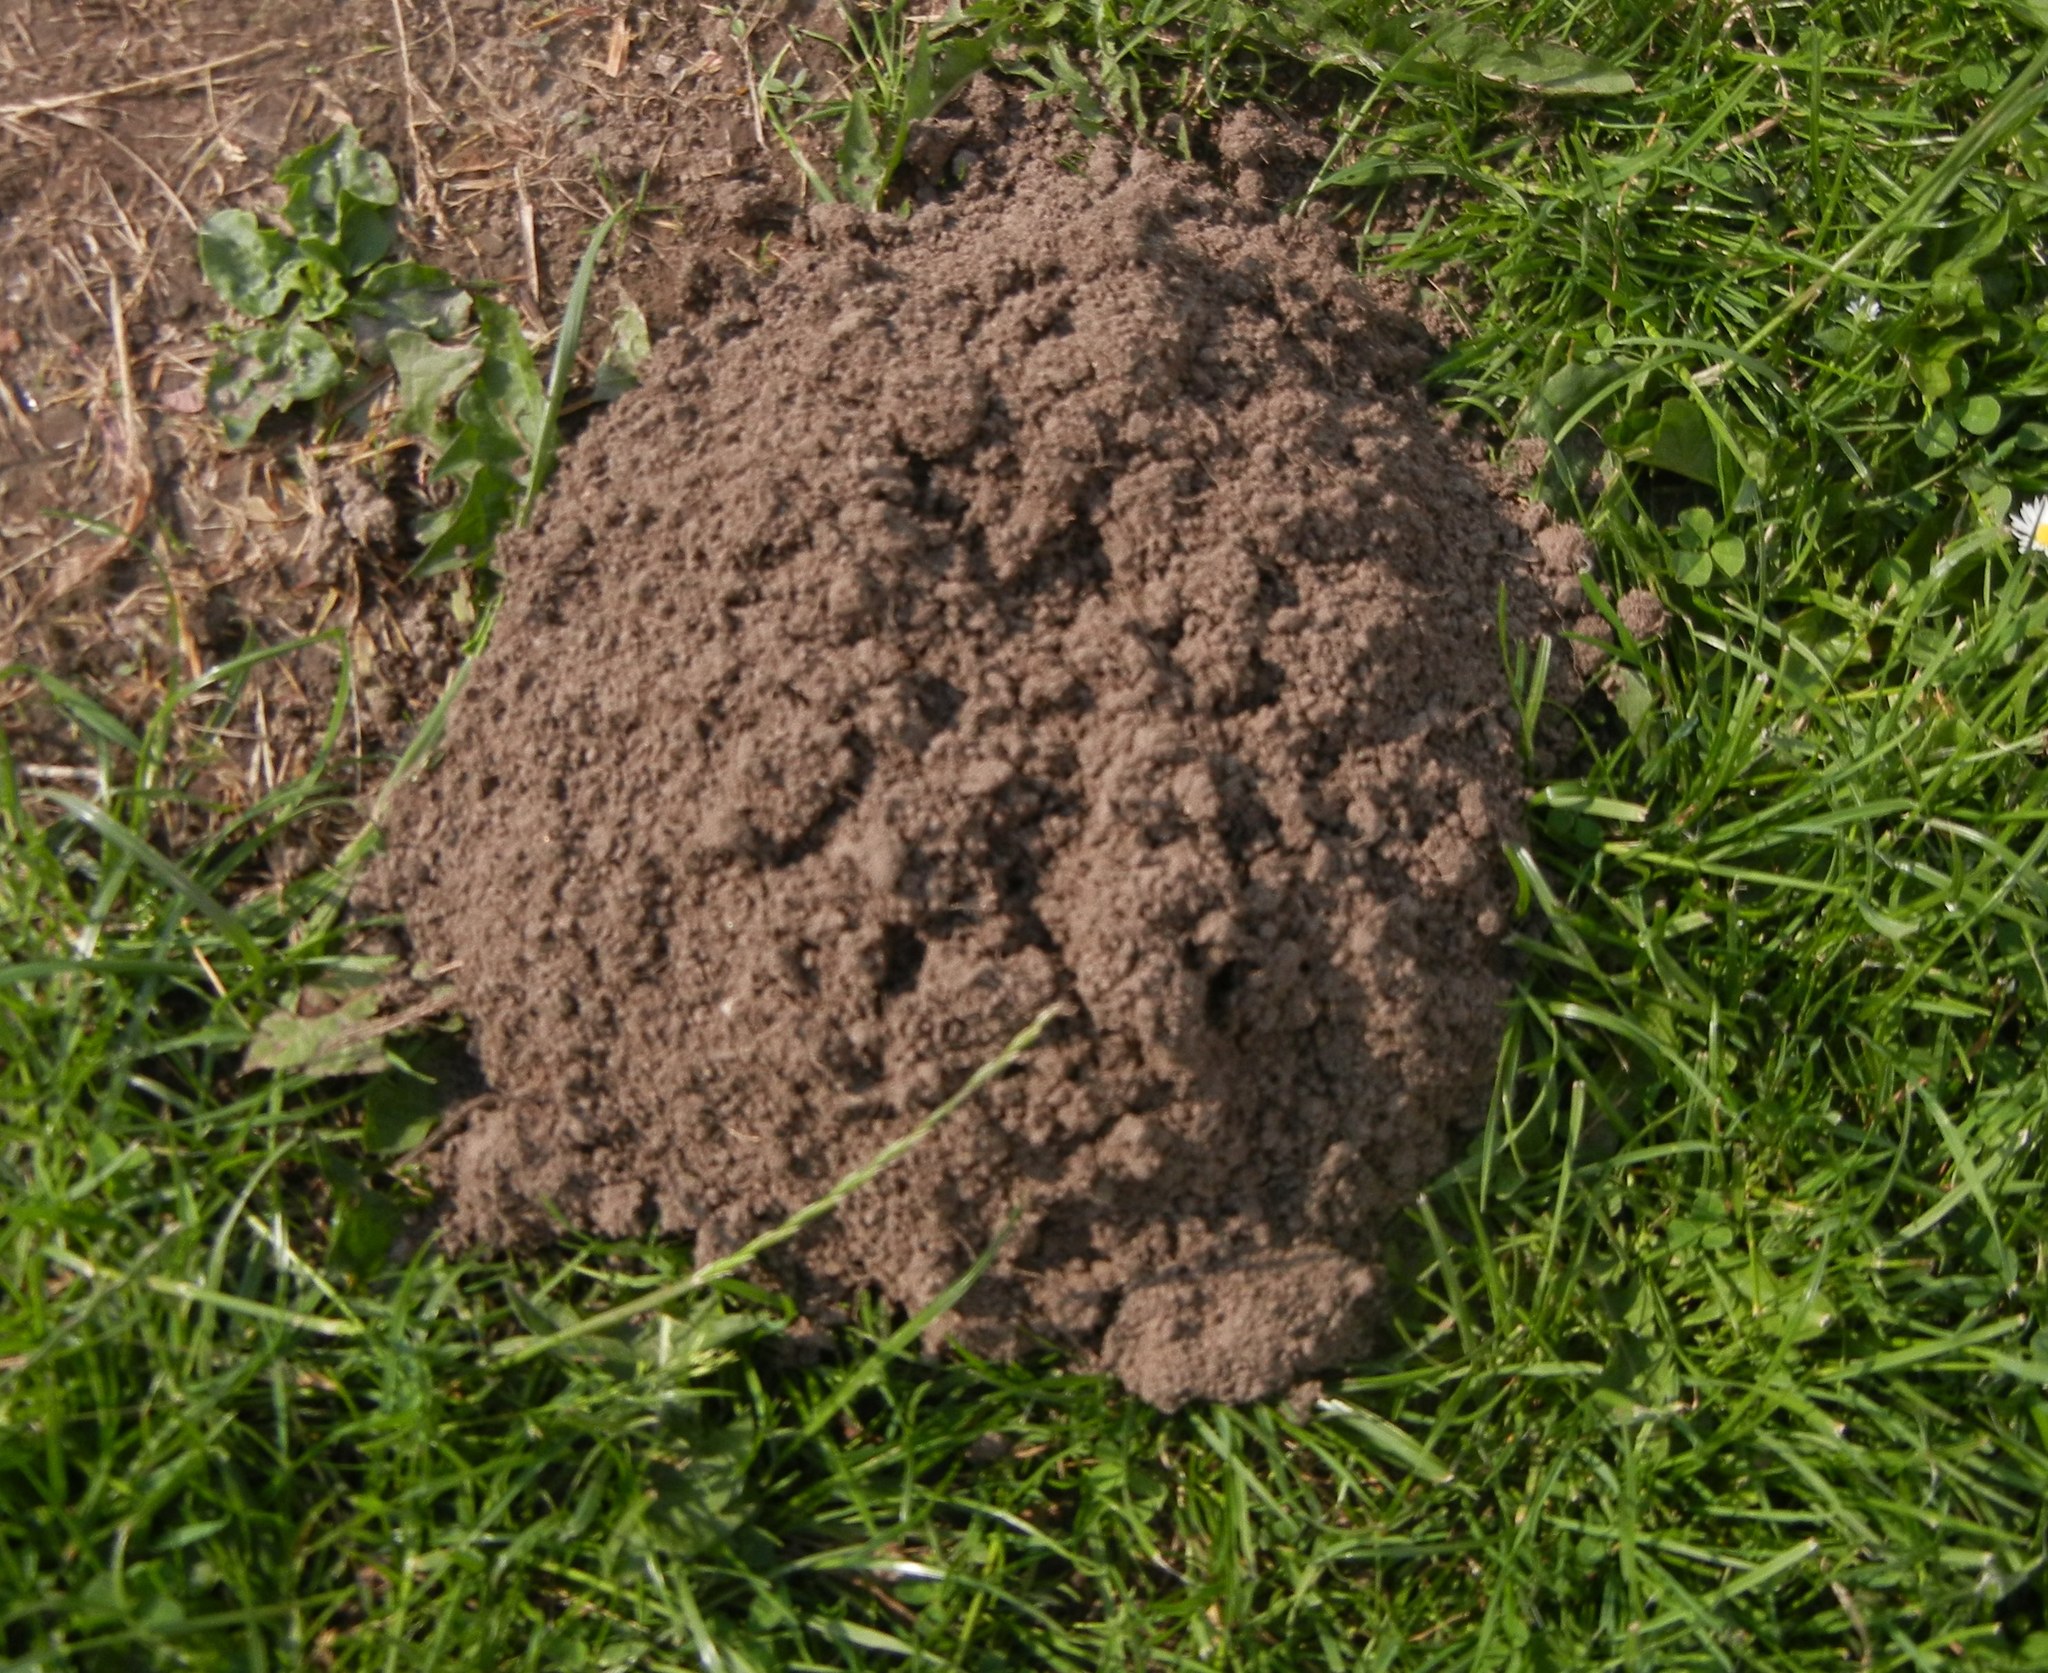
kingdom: Animalia
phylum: Chordata
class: Mammalia
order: Soricomorpha
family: Talpidae
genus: Talpa
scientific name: Talpa europaea
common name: European mole
